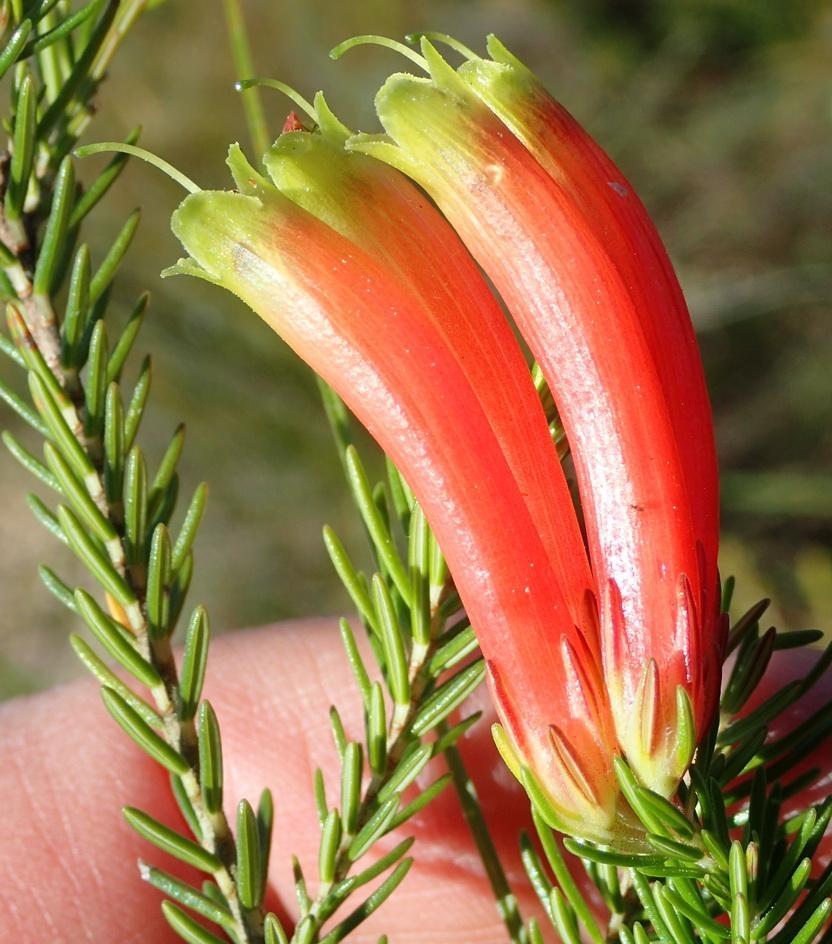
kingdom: Plantae
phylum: Tracheophyta
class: Magnoliopsida
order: Ericales
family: Ericaceae
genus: Erica
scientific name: Erica unicolor
